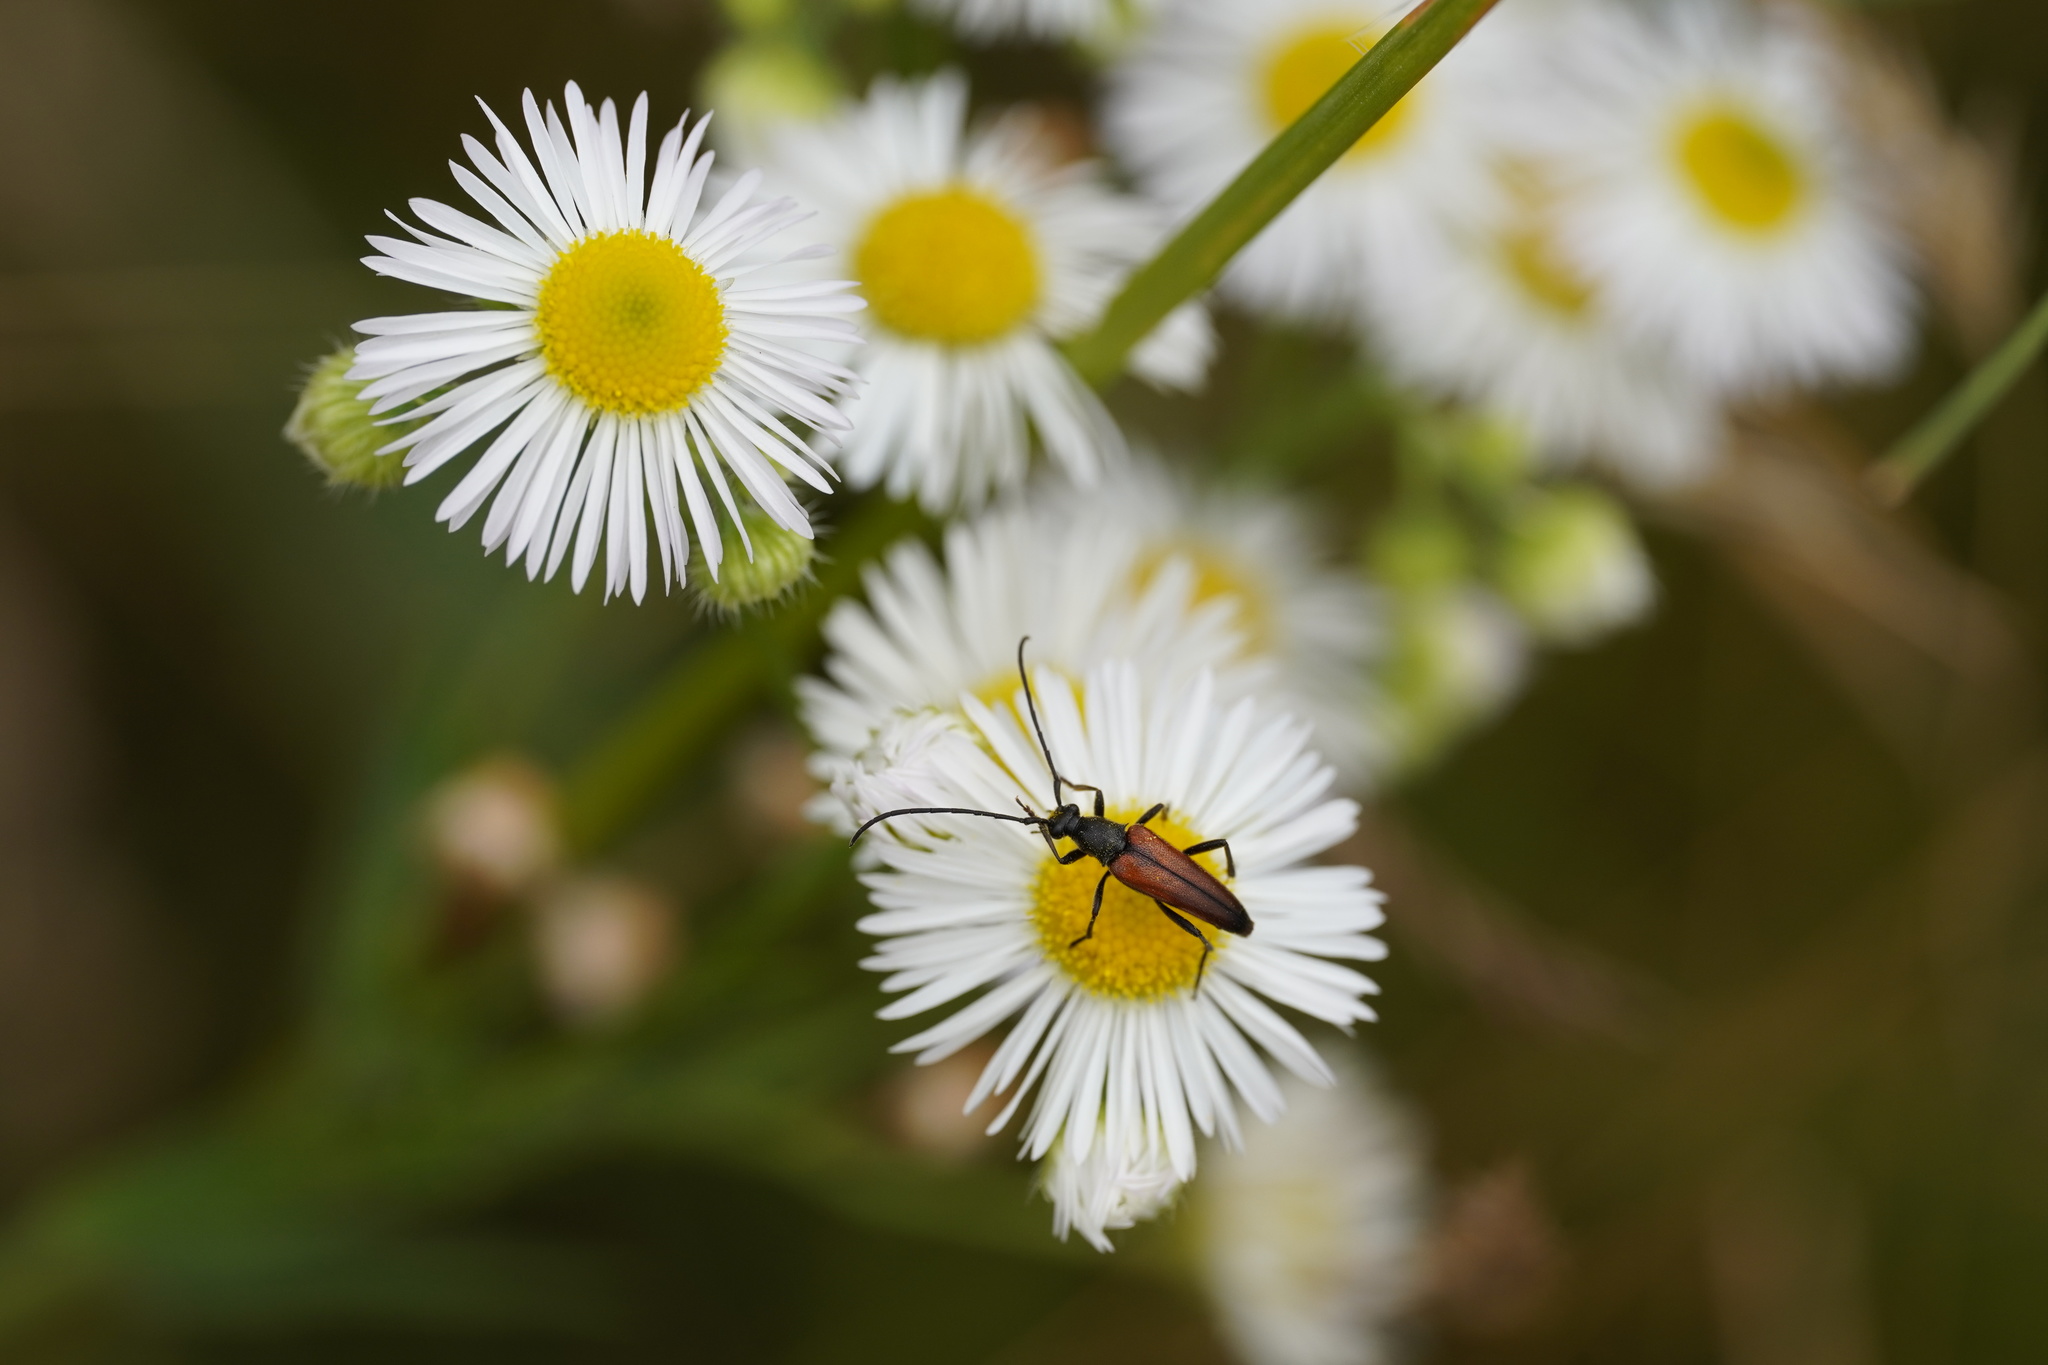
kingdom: Animalia
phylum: Arthropoda
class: Insecta
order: Coleoptera
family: Cerambycidae
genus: Stenurella
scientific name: Stenurella melanura
